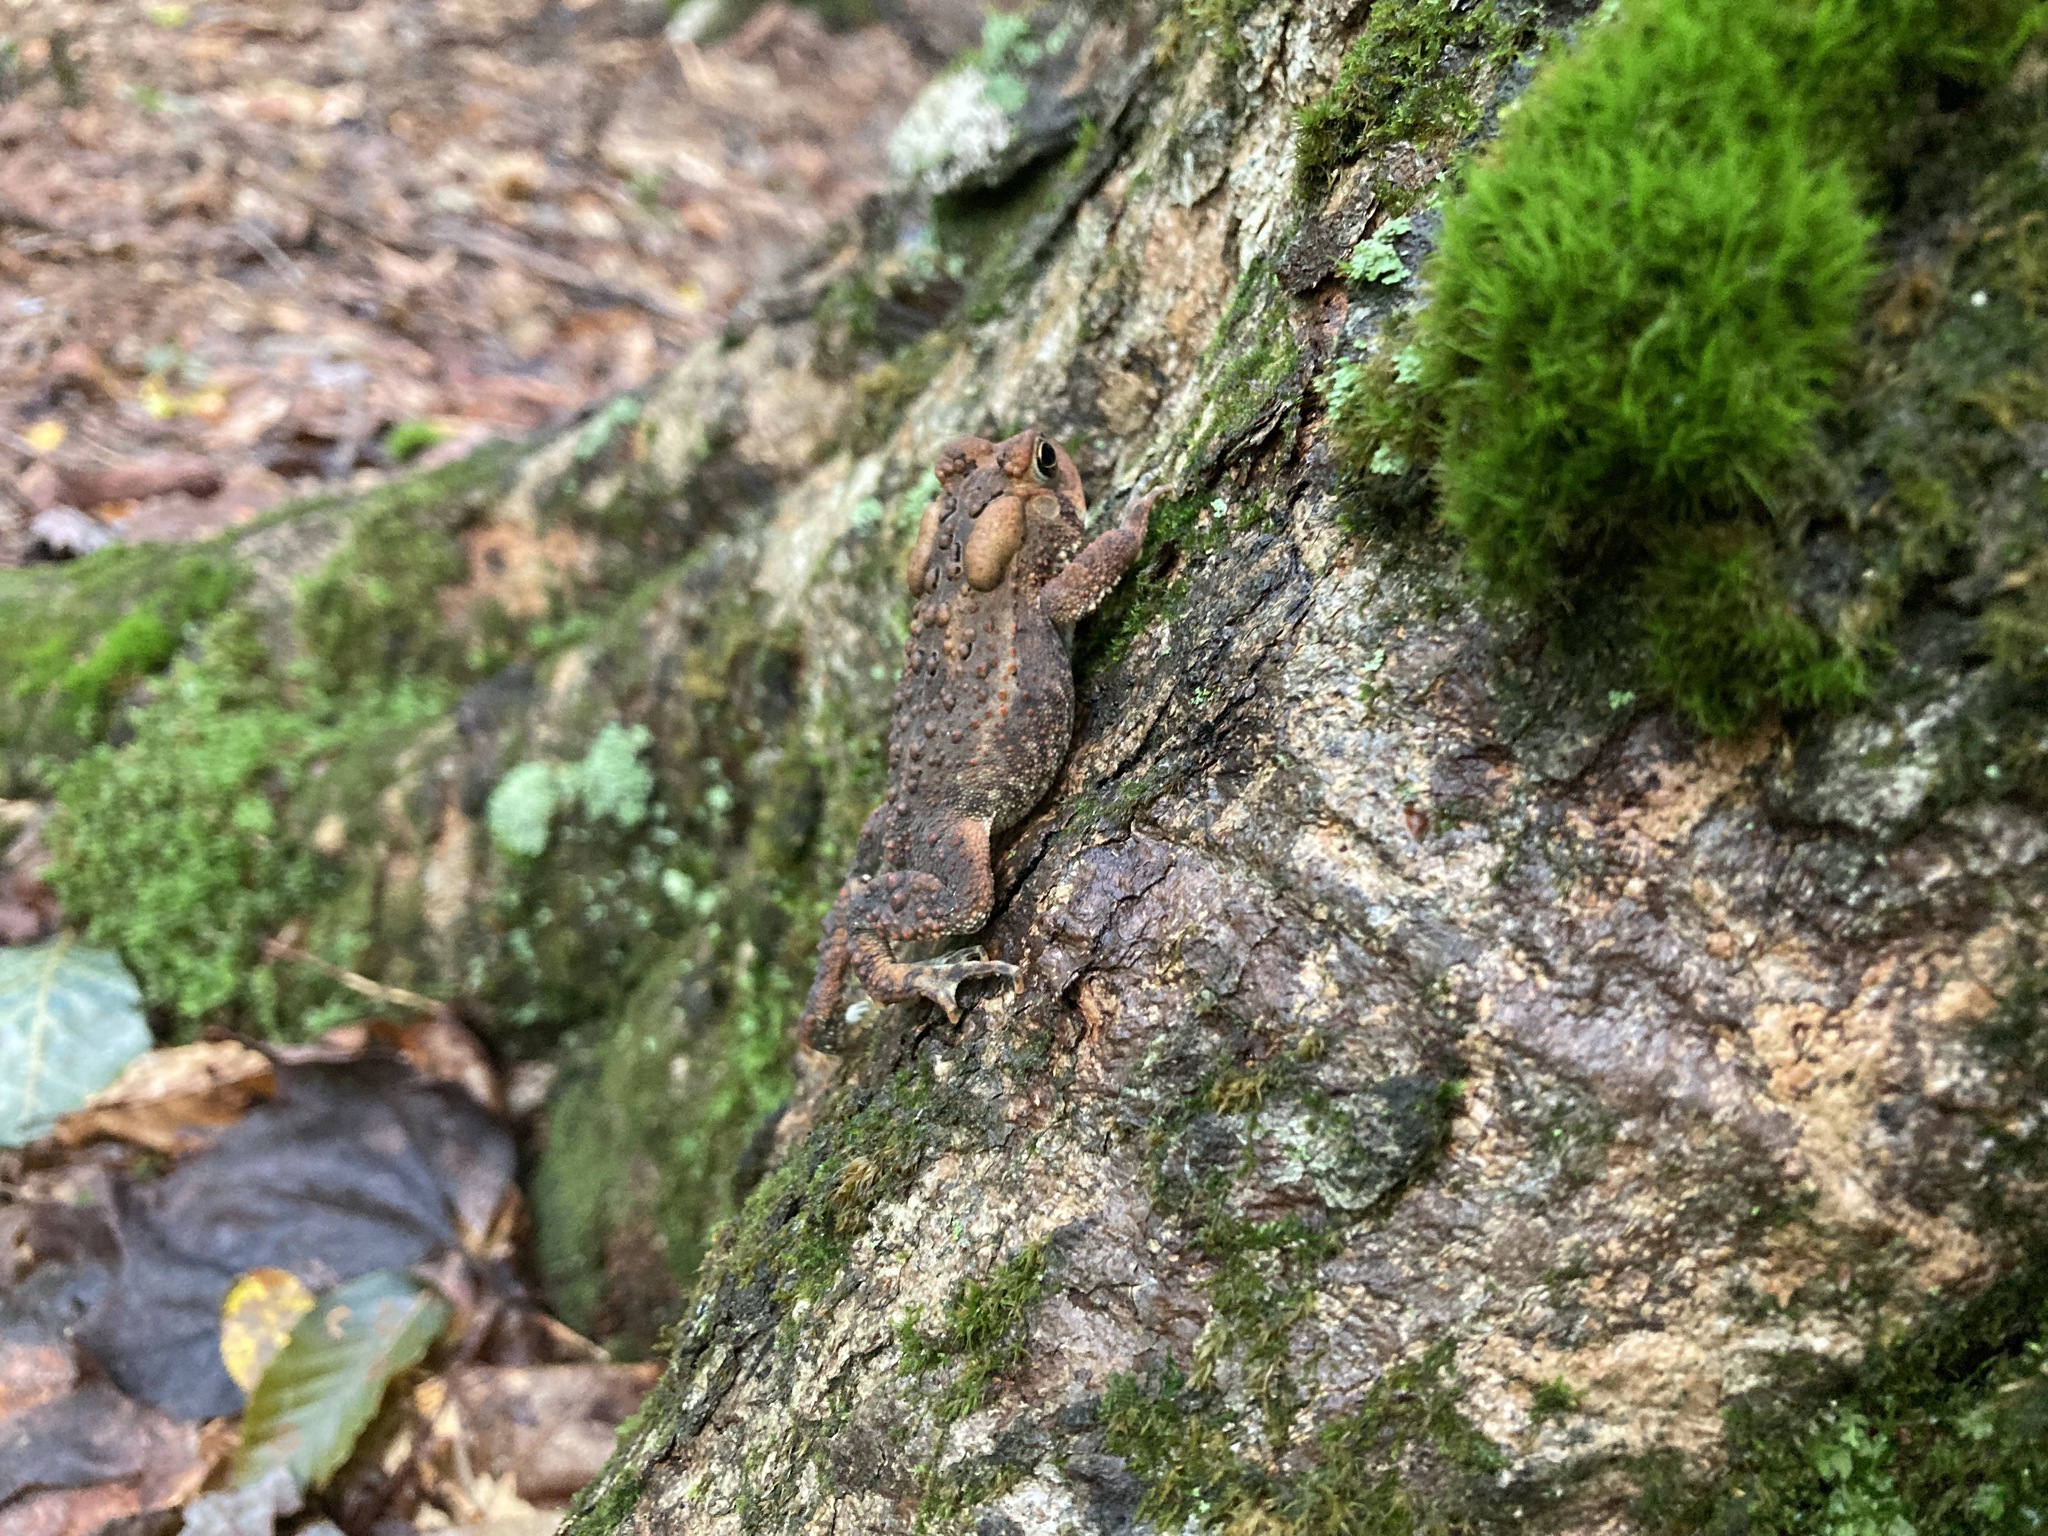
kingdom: Animalia
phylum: Chordata
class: Amphibia
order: Anura
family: Bufonidae
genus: Anaxyrus
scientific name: Anaxyrus americanus
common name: American toad
